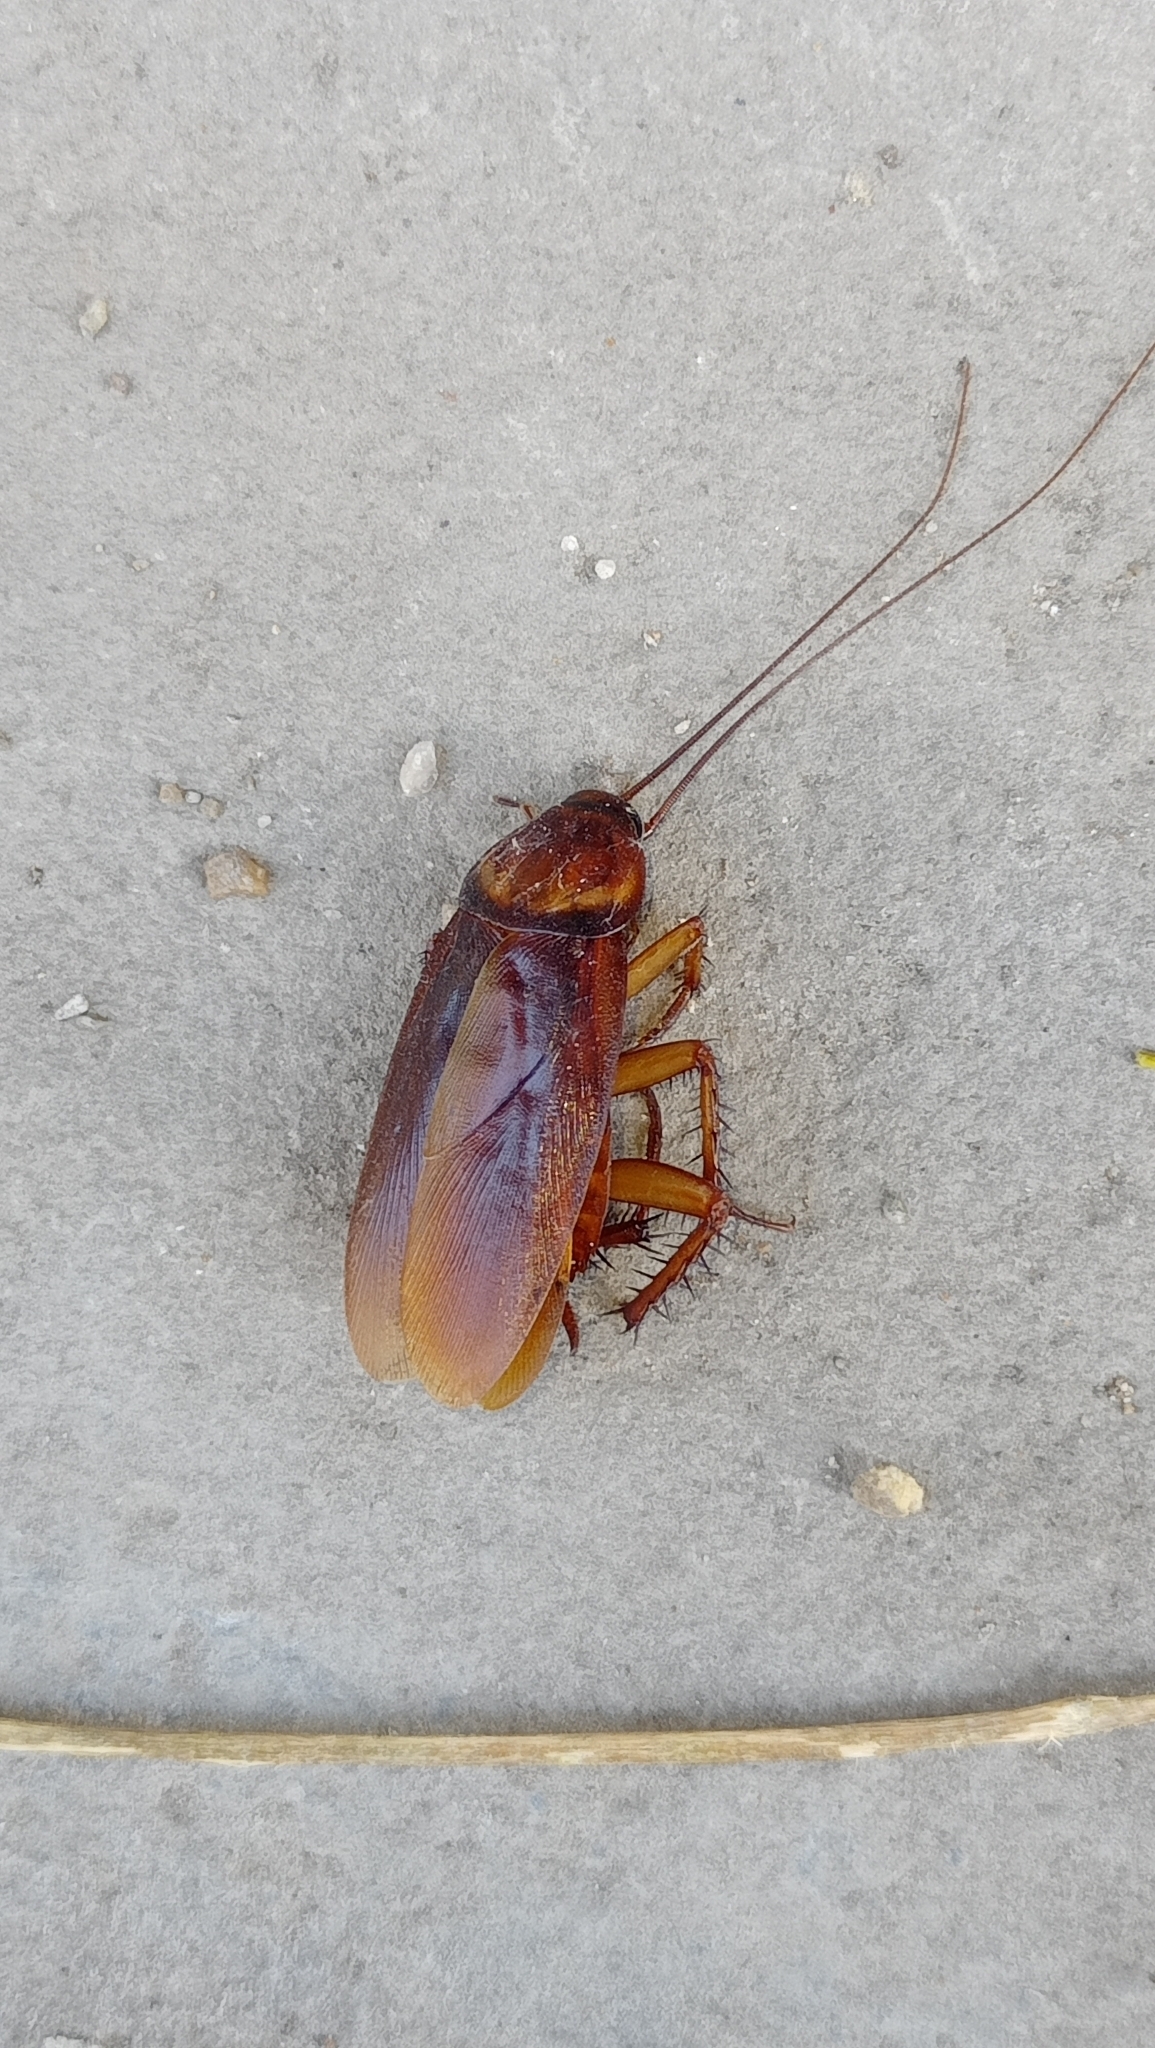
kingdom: Animalia
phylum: Arthropoda
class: Insecta
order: Blattodea
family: Blattidae
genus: Periplaneta
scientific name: Periplaneta americana
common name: American cockroach
